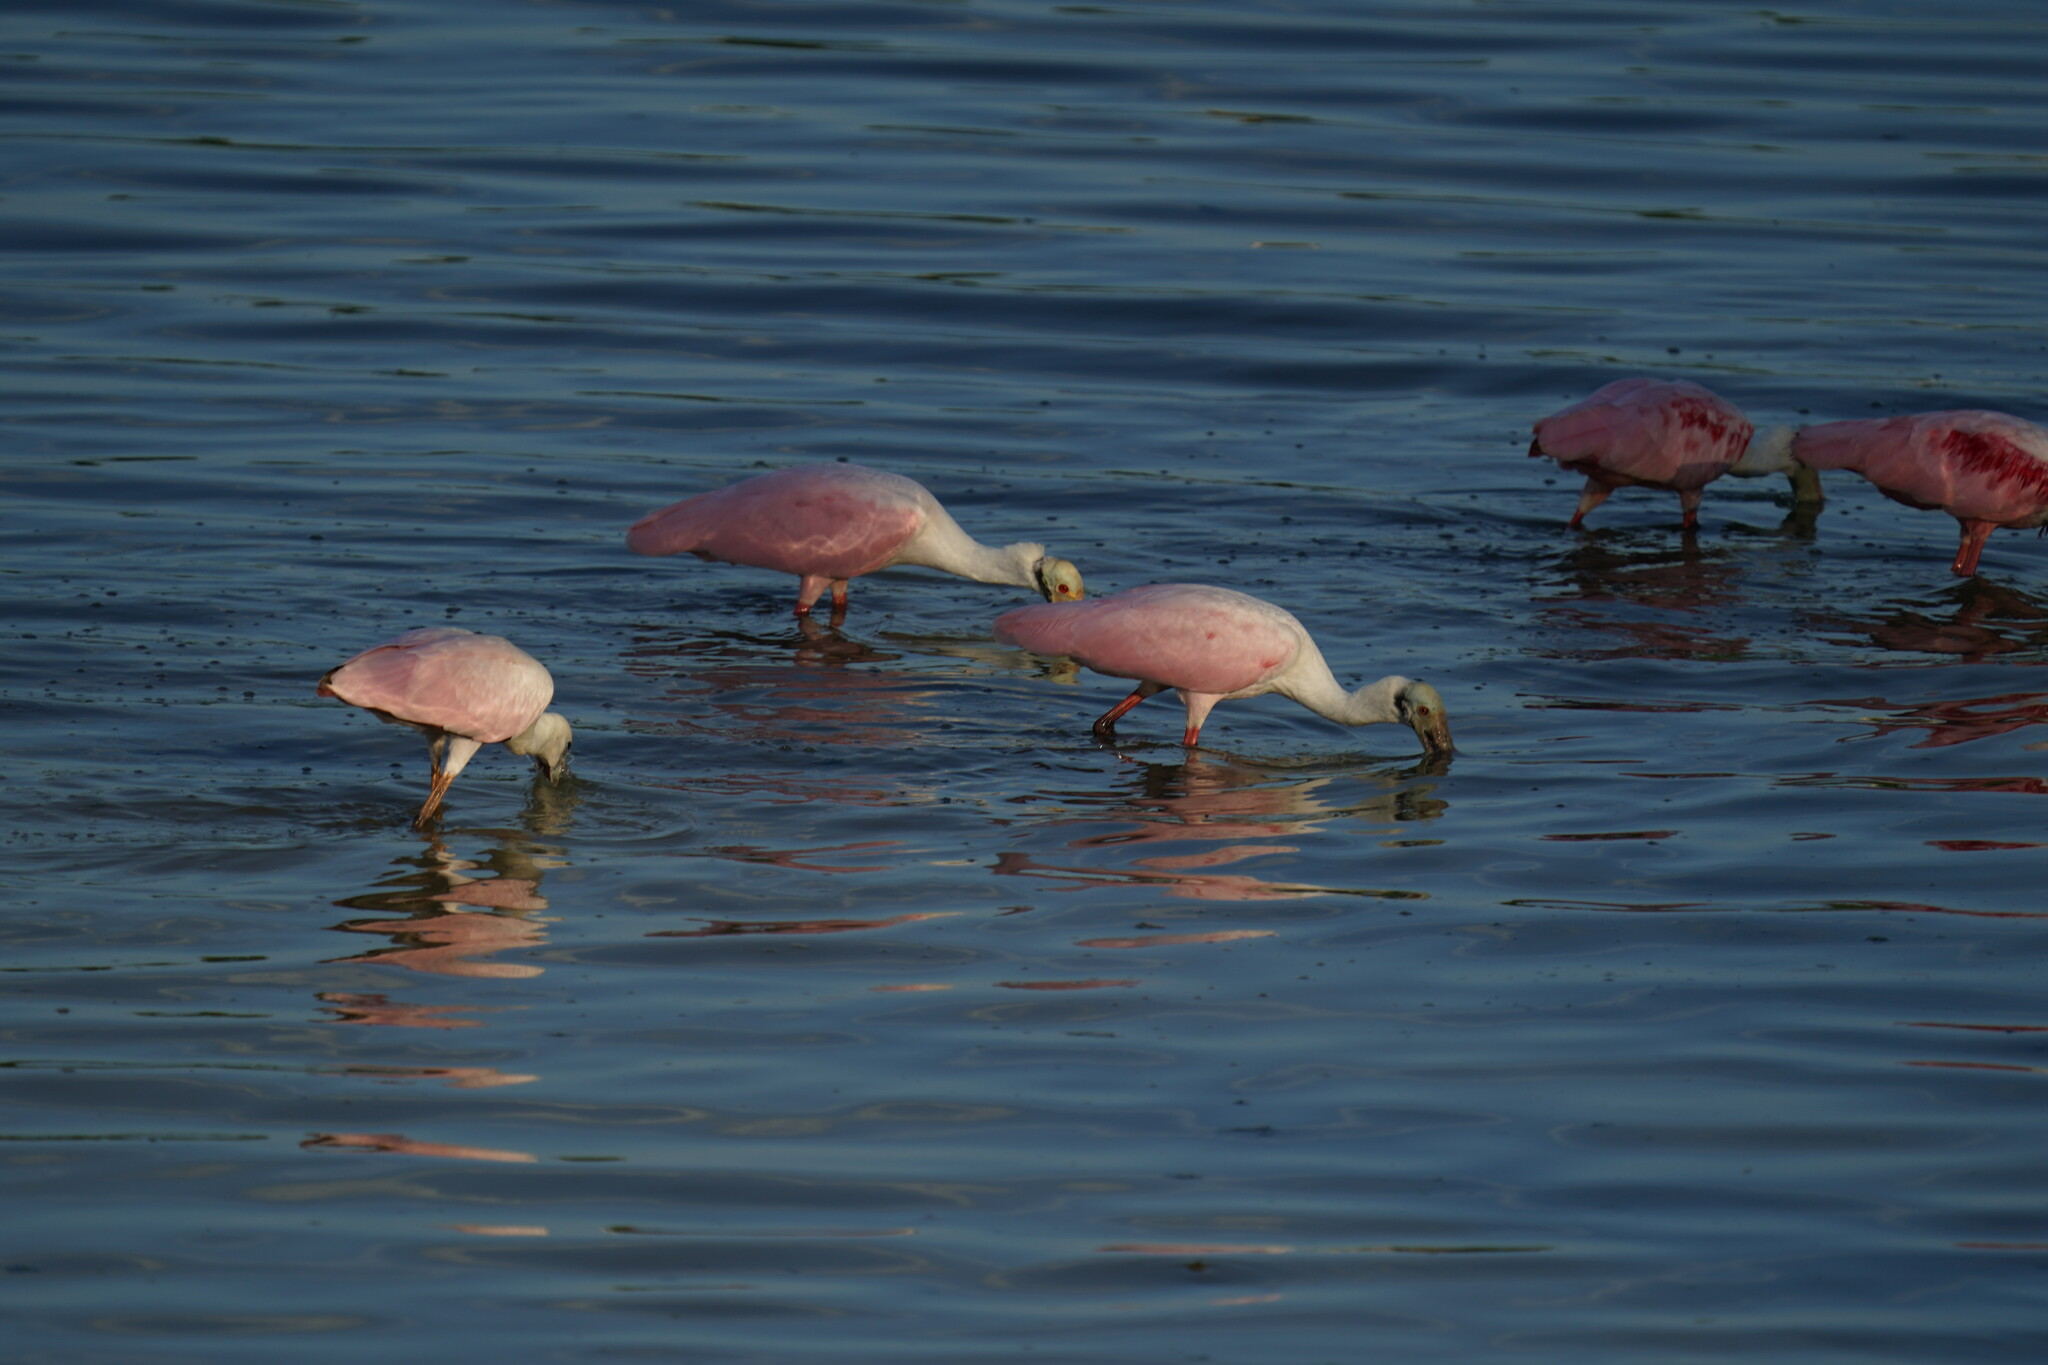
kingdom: Animalia
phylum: Chordata
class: Aves
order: Pelecaniformes
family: Threskiornithidae
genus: Platalea
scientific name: Platalea ajaja
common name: Roseate spoonbill
